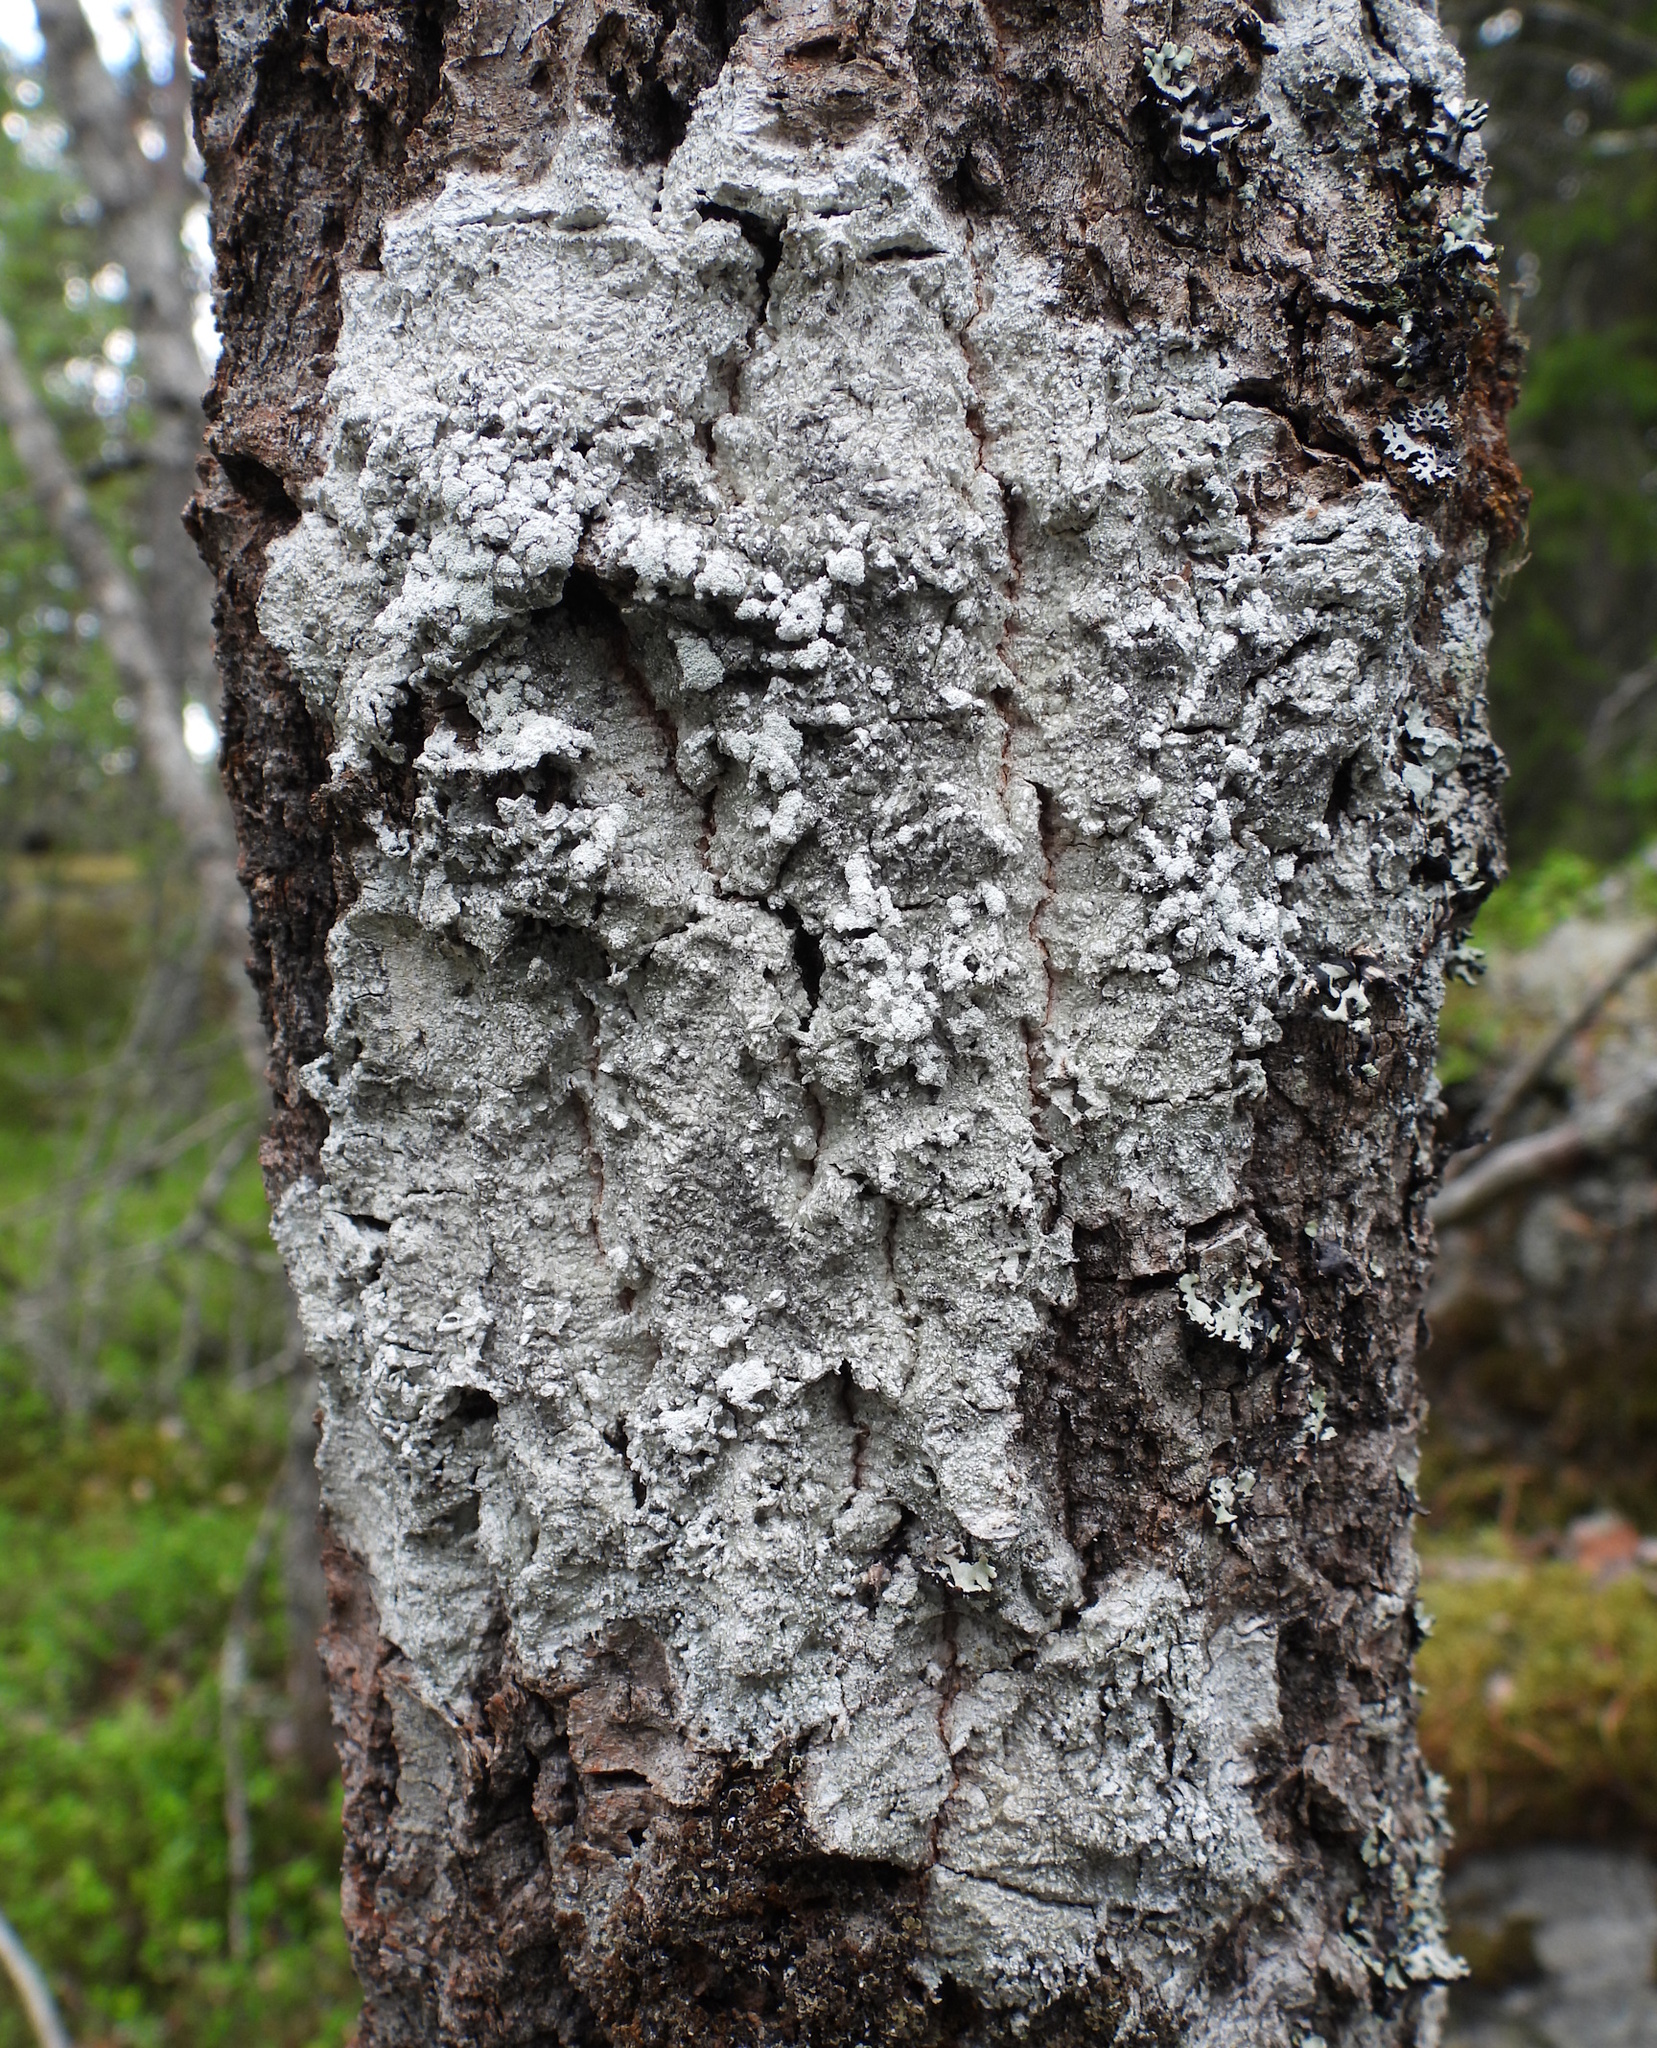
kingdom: Fungi
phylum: Ascomycota
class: Lecanoromycetes
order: Pertusariales
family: Pertusariaceae
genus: Lepra
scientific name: Lepra amara
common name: Bitter wart lichen
